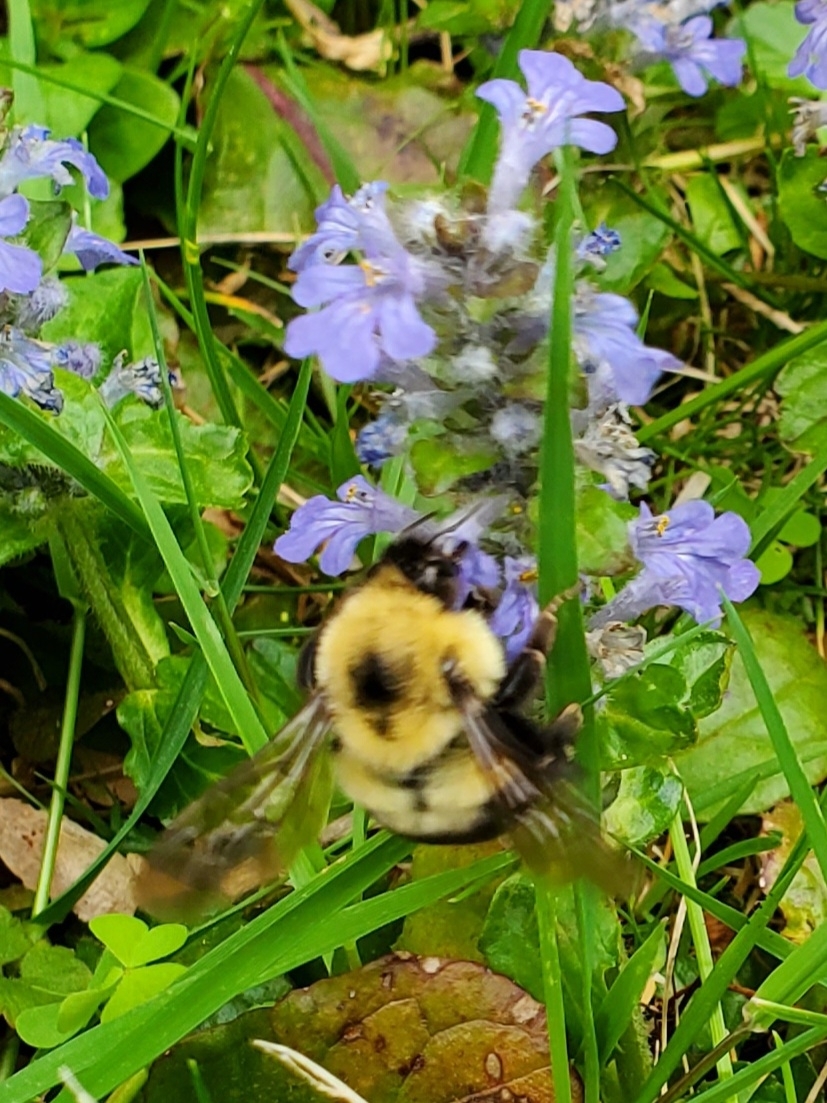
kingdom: Animalia
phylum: Arthropoda
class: Insecta
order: Hymenoptera
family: Apidae
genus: Bombus
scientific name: Bombus bimaculatus
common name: Two-spotted bumble bee
